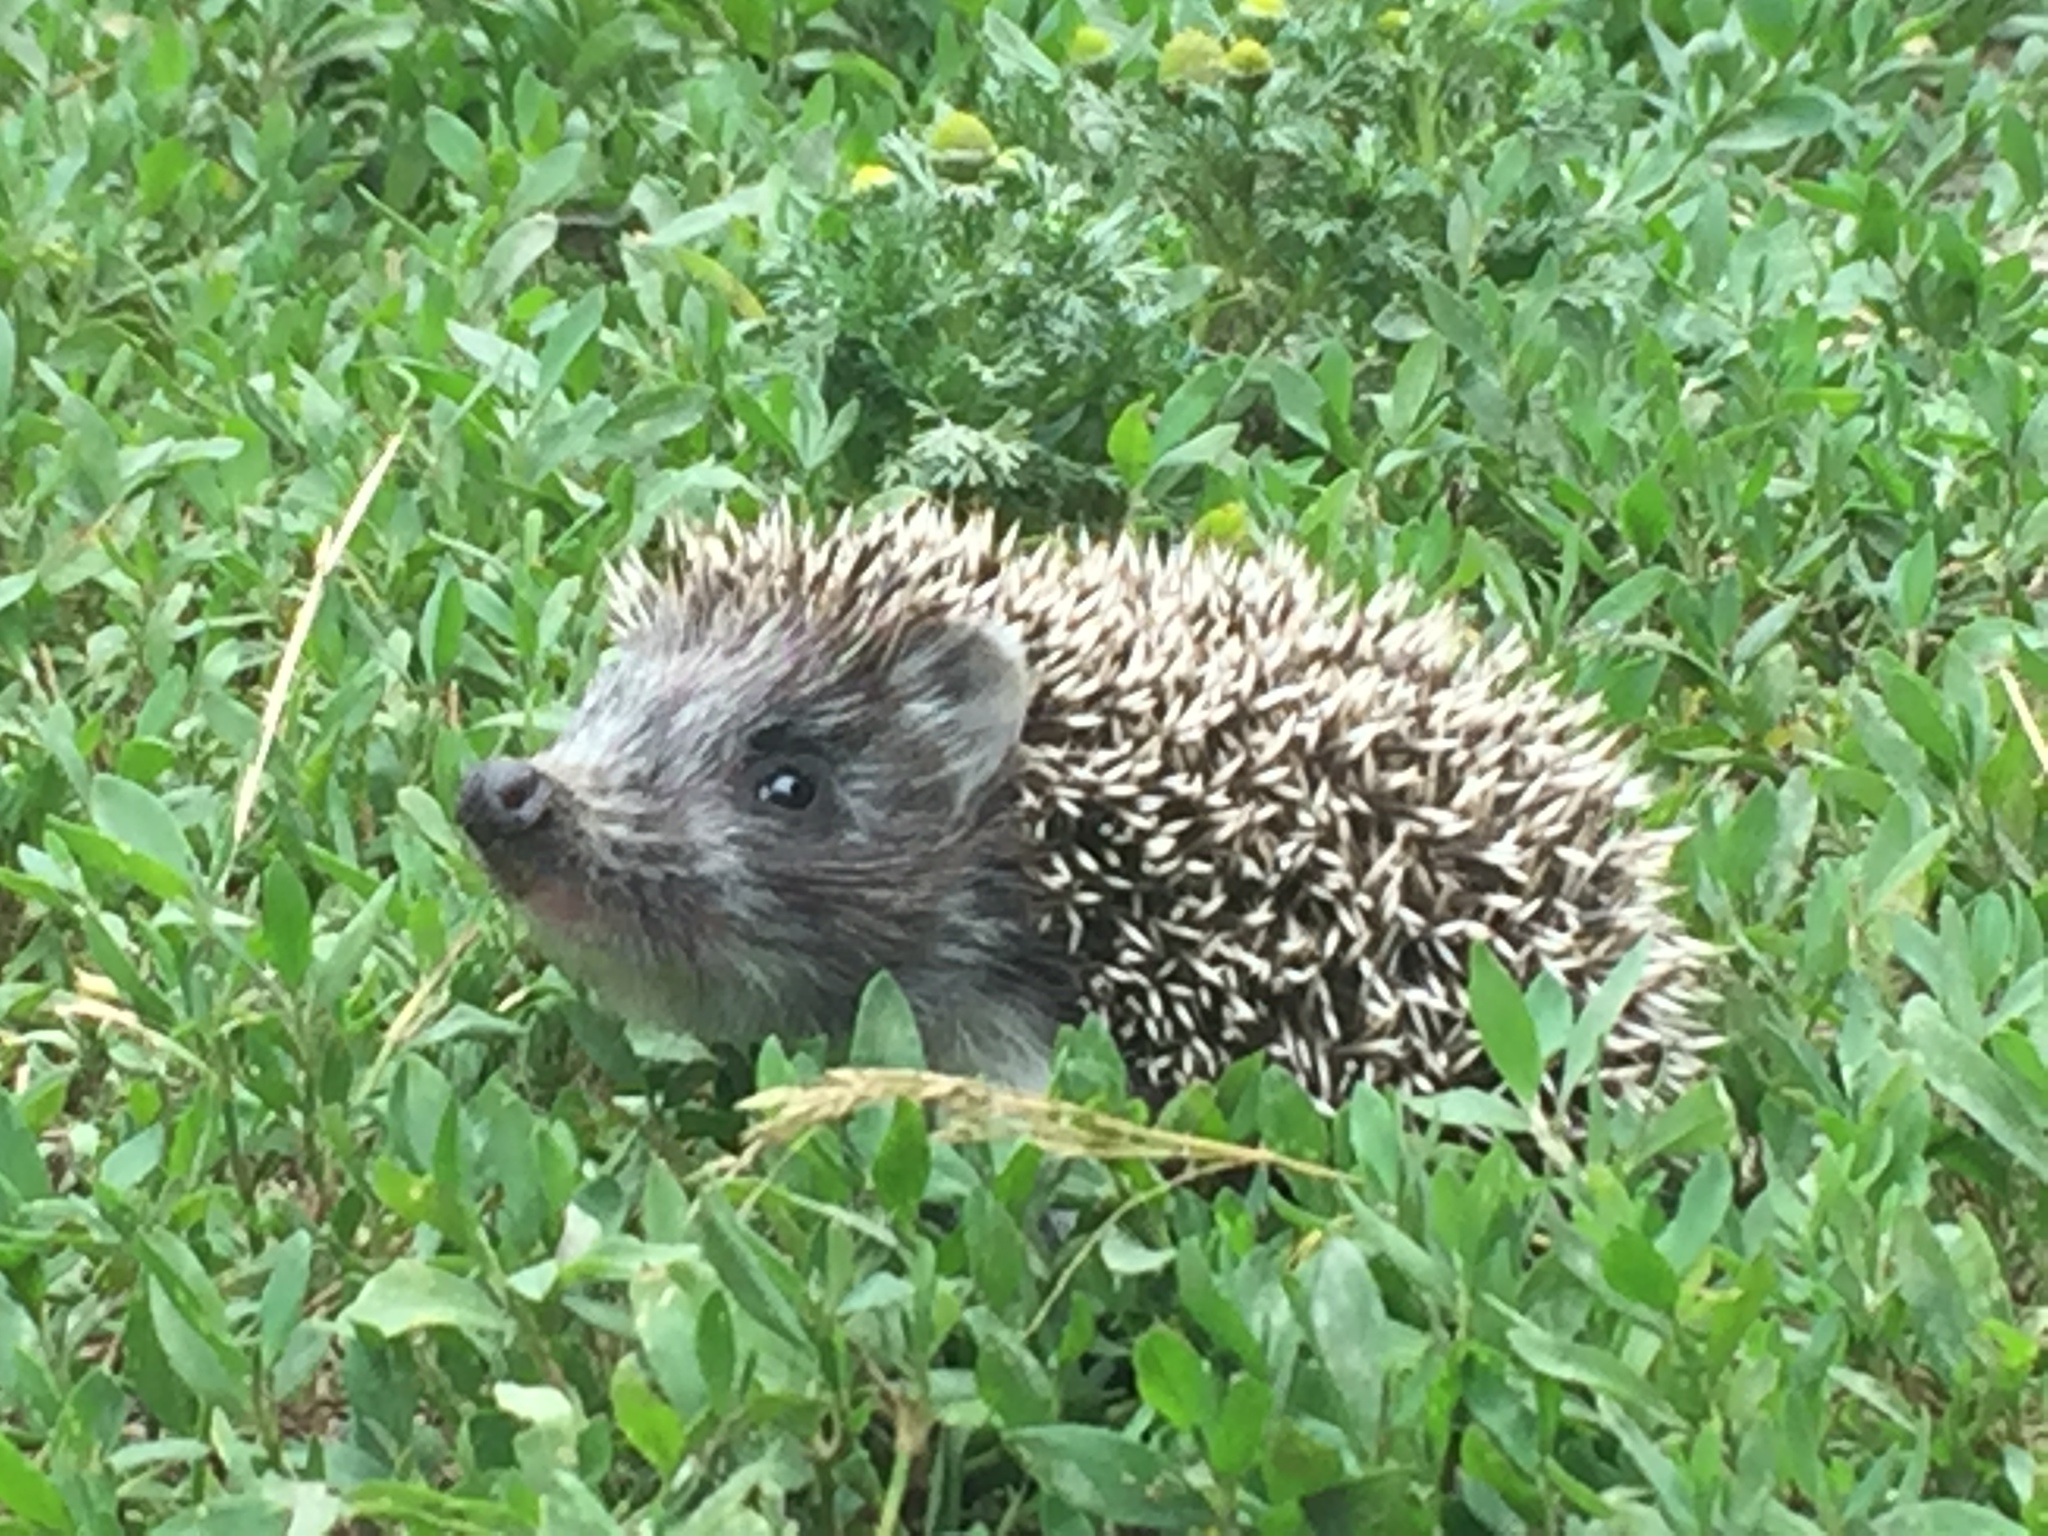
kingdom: Animalia
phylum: Chordata
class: Mammalia
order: Erinaceomorpha
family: Erinaceidae
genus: Erinaceus
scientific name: Erinaceus roumanicus
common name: Northern white-breasted hedgehog
